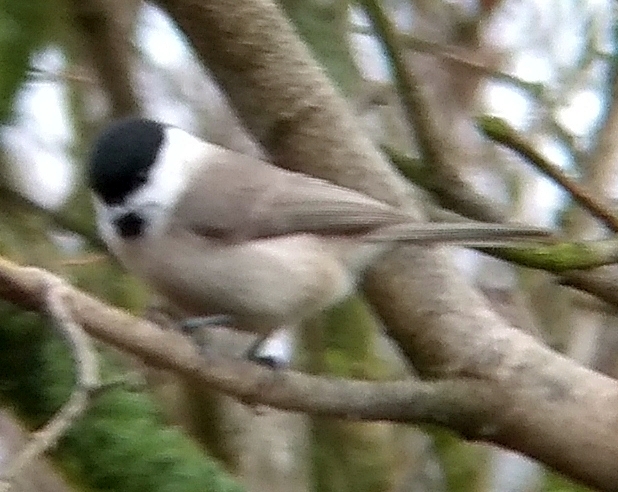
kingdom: Animalia
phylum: Chordata
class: Aves
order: Passeriformes
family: Paridae
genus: Poecile
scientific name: Poecile palustris
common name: Marsh tit
